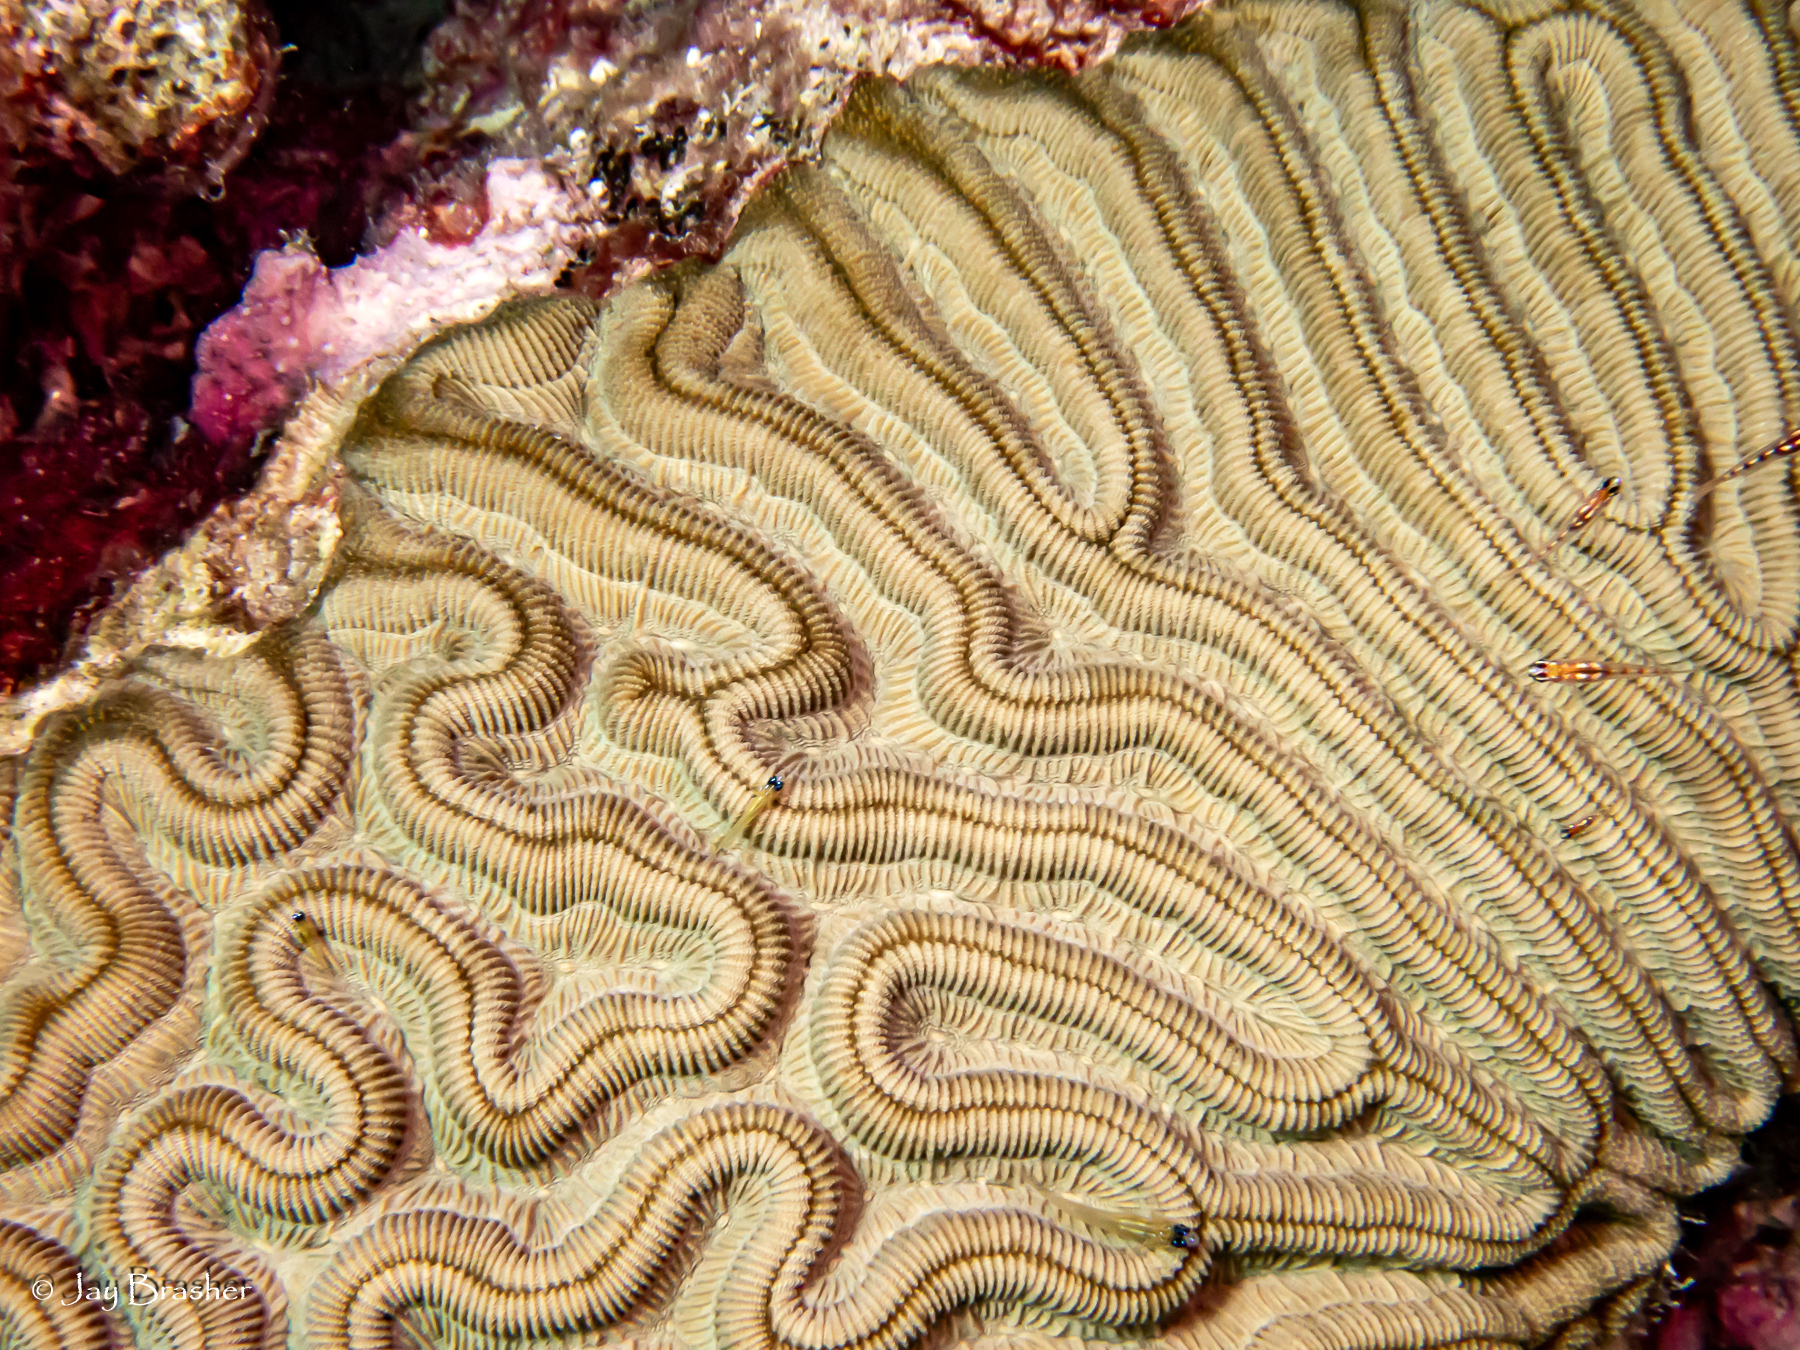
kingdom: Animalia
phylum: Cnidaria
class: Anthozoa
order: Scleractinia
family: Faviidae
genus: Colpophyllia
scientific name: Colpophyllia natans
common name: Boulder brain coral
